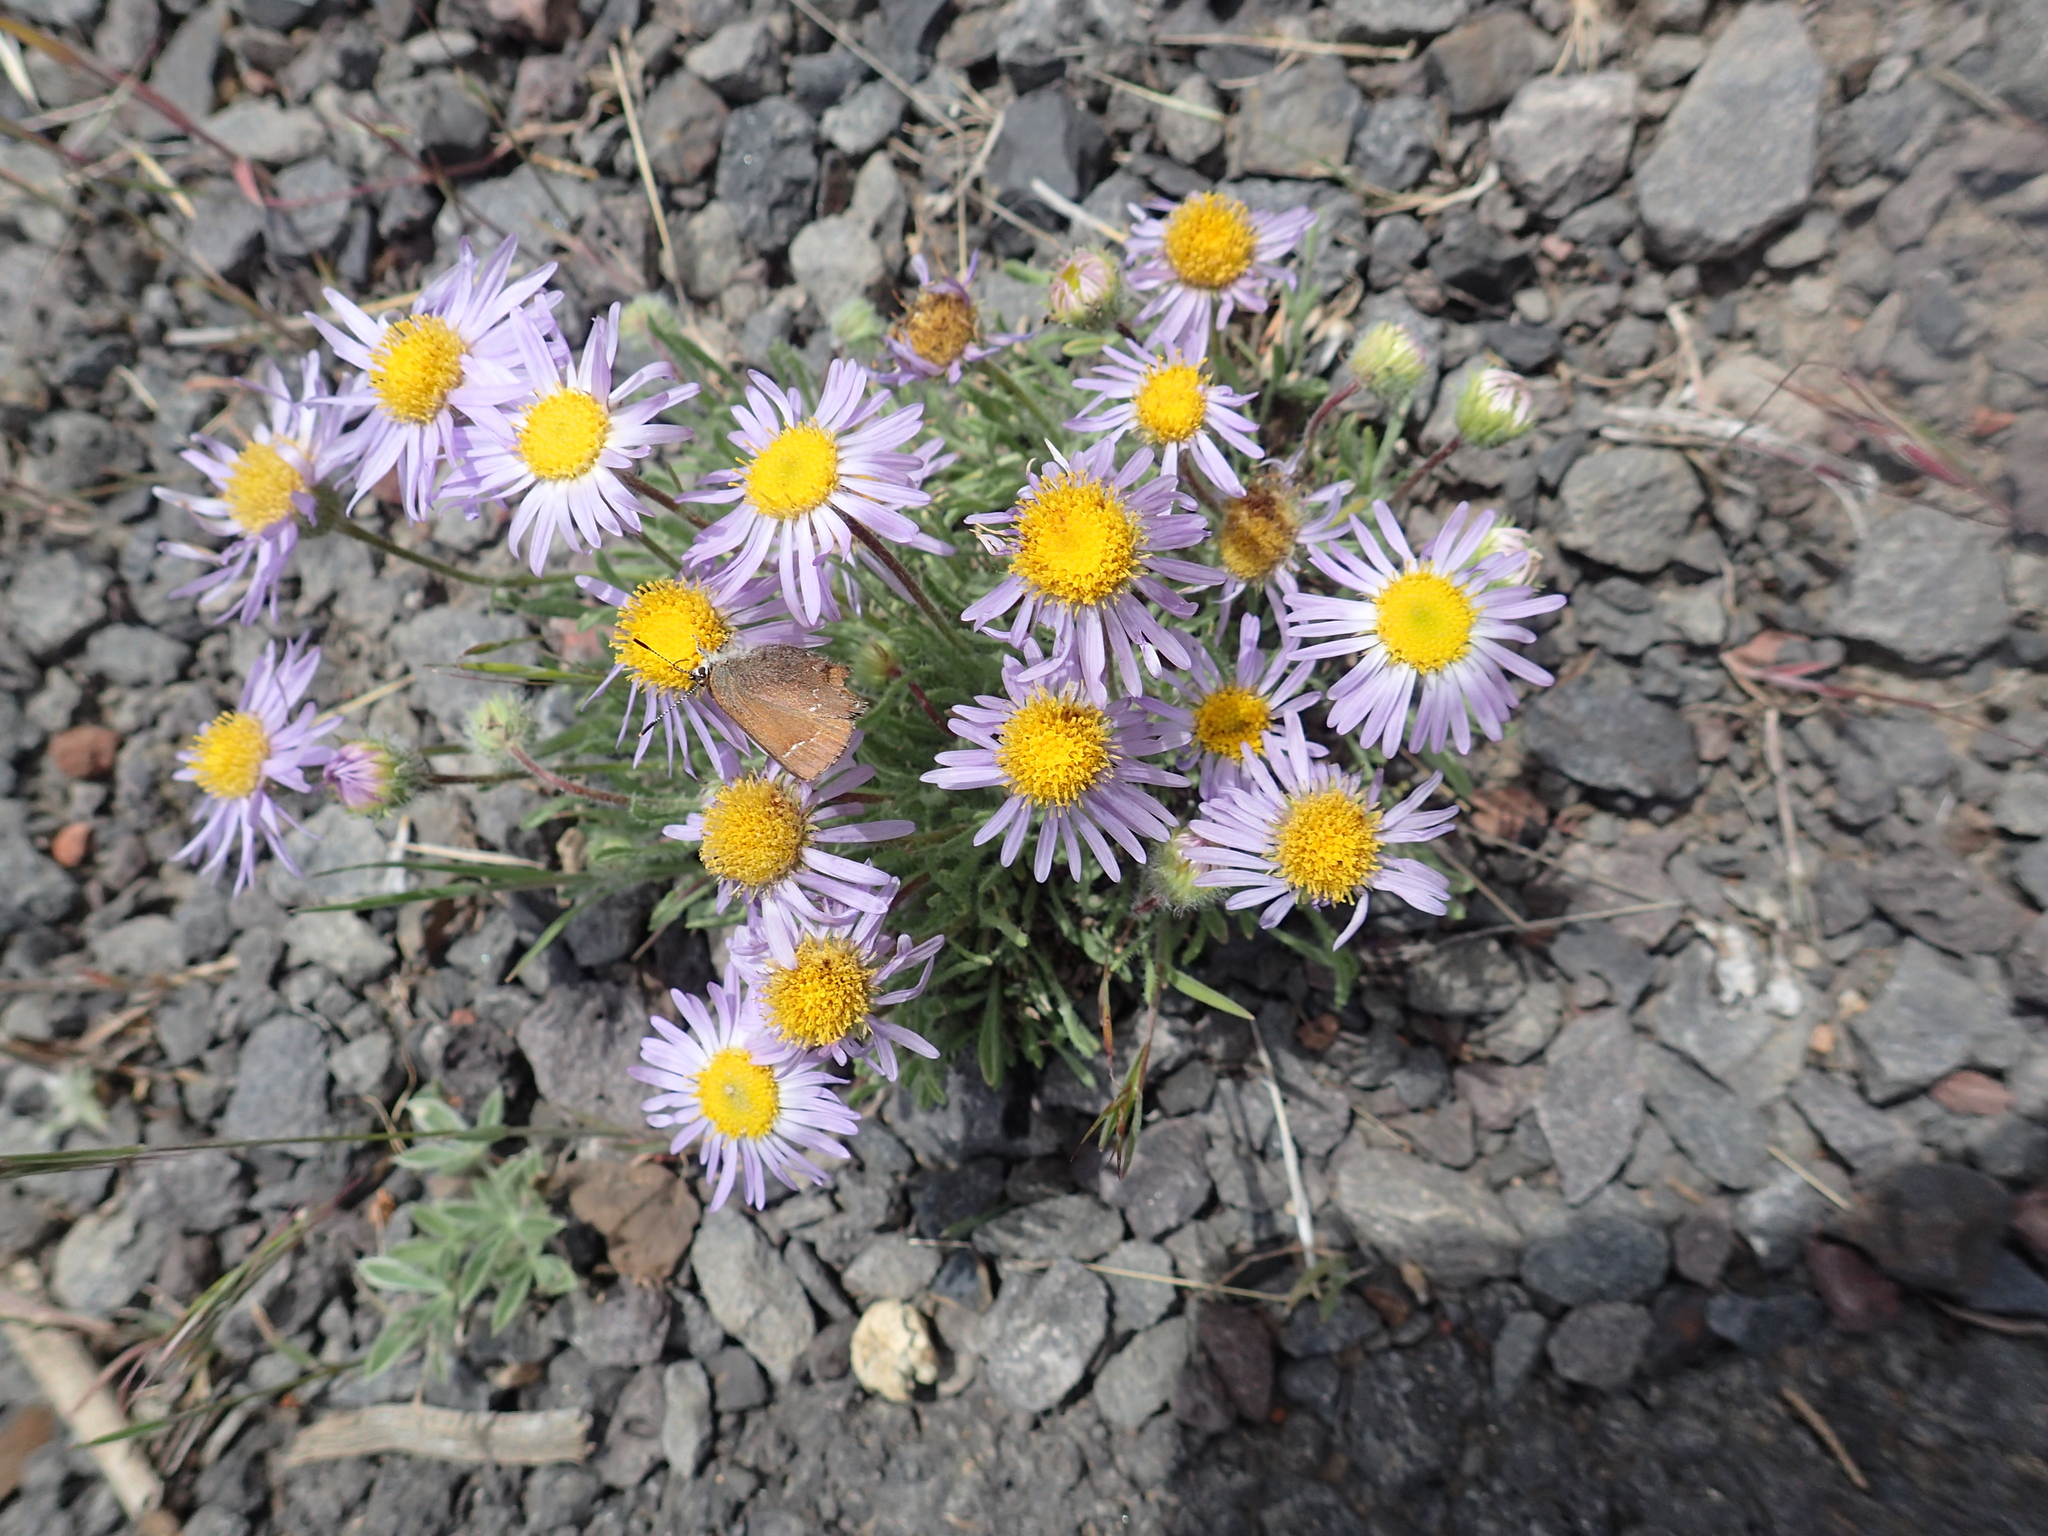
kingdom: Plantae
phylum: Tracheophyta
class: Magnoliopsida
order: Asterales
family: Asteraceae
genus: Erigeron
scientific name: Erigeron poliospermus
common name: Cushion fleabane
